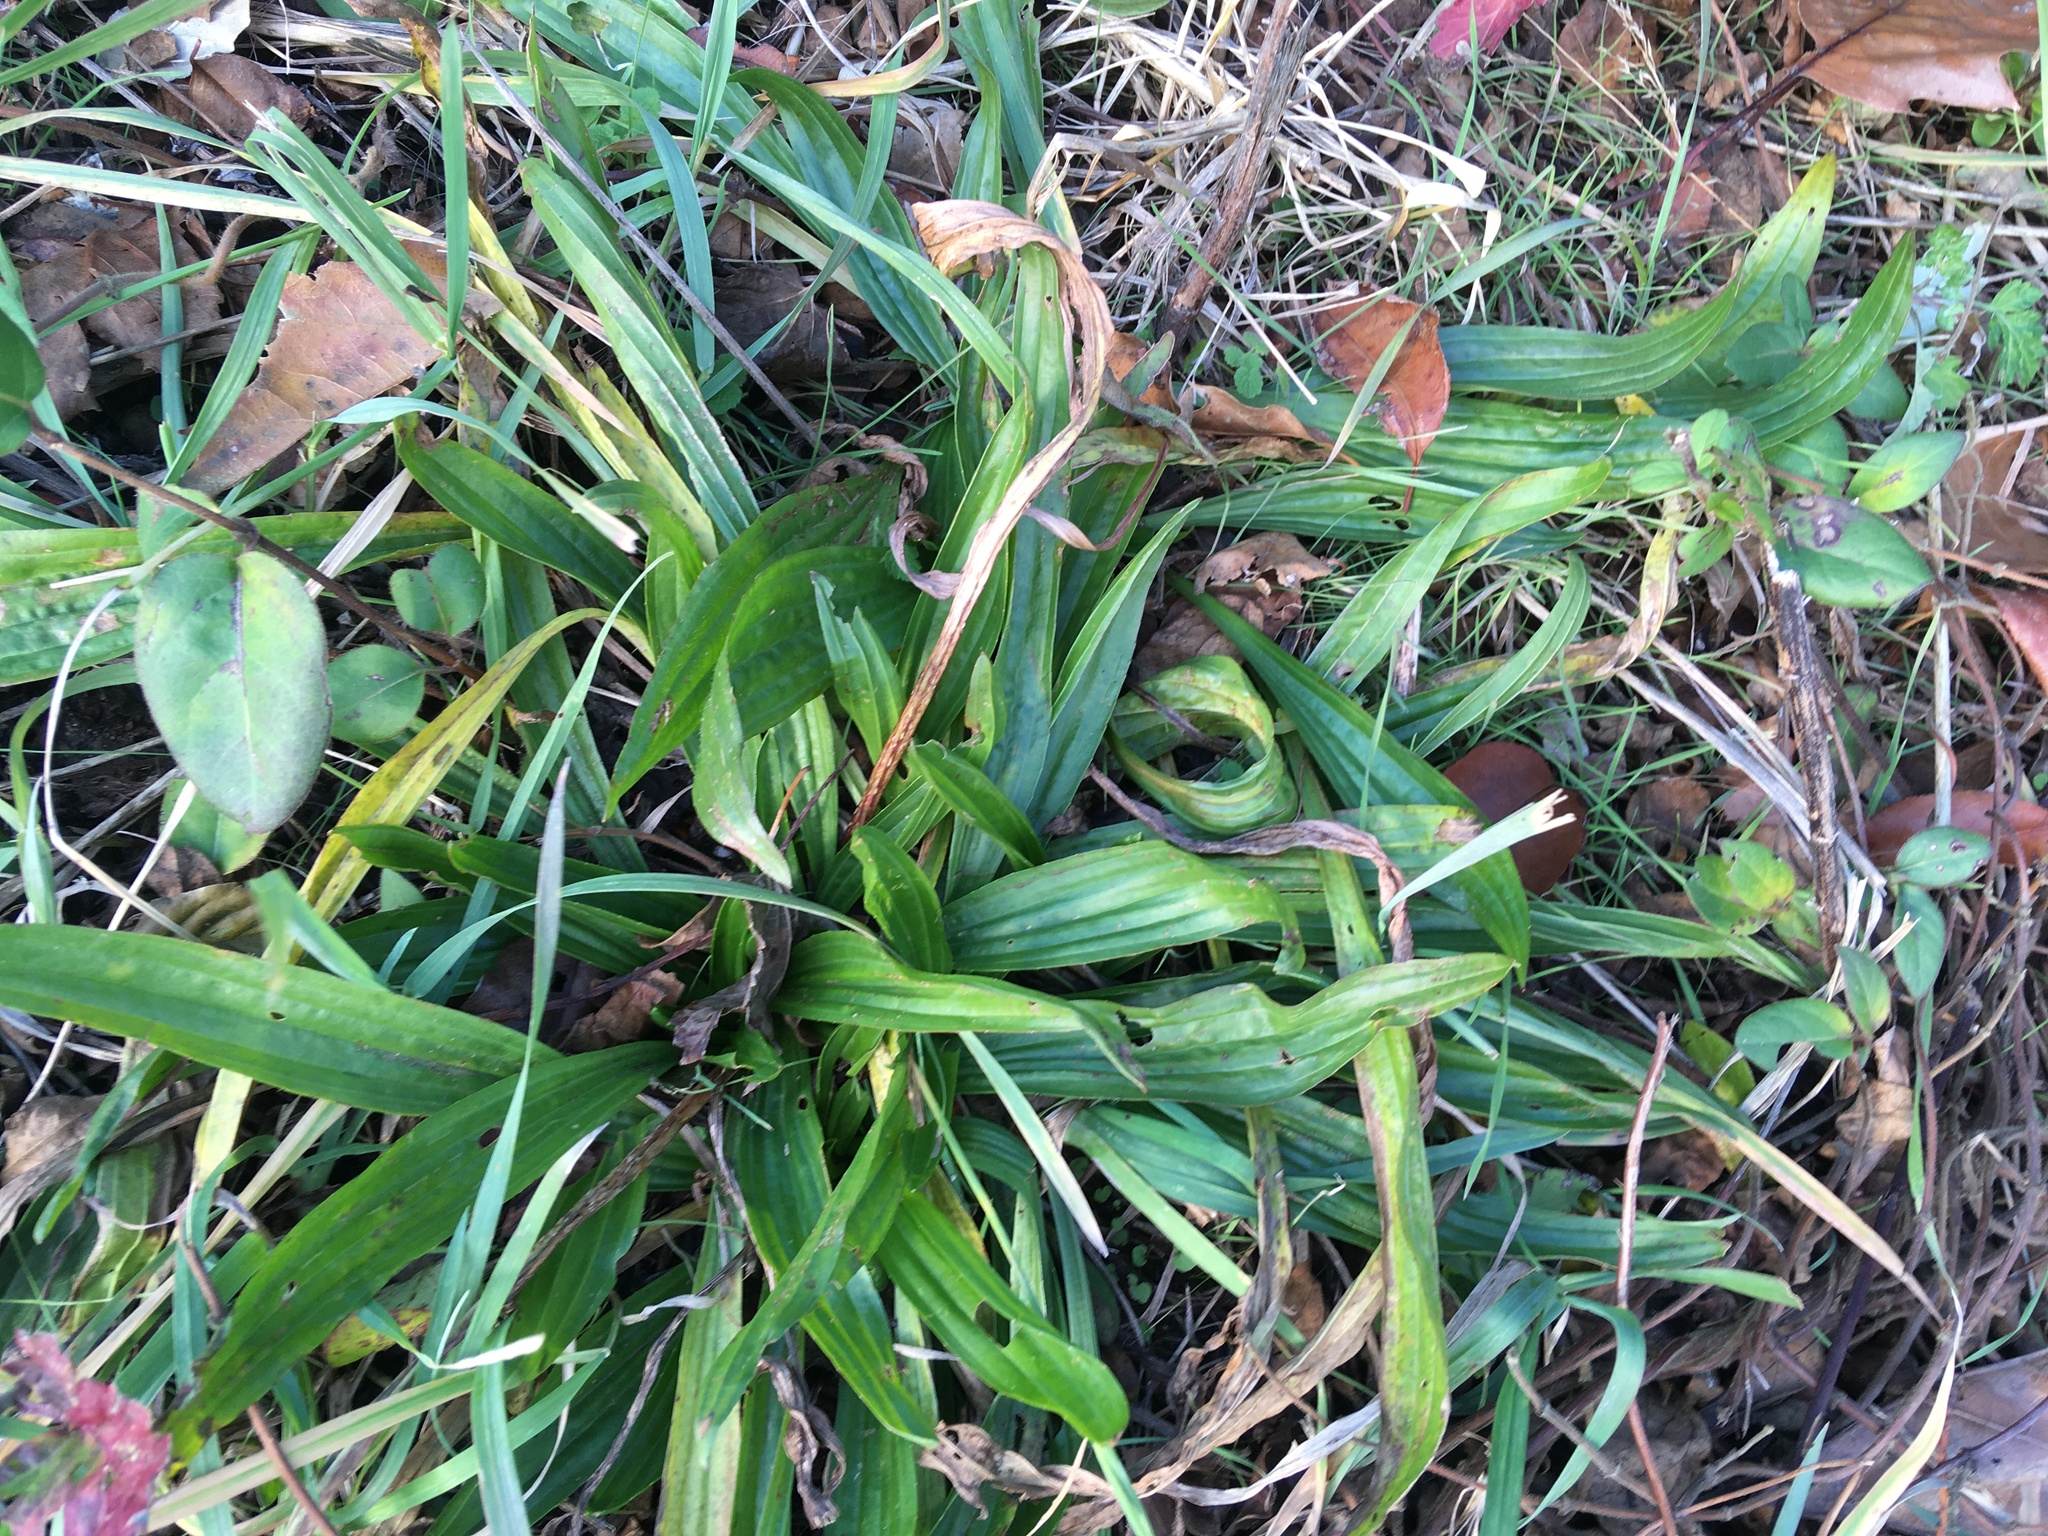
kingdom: Plantae
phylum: Tracheophyta
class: Magnoliopsida
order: Lamiales
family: Plantaginaceae
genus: Plantago
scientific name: Plantago lanceolata
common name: Ribwort plantain
